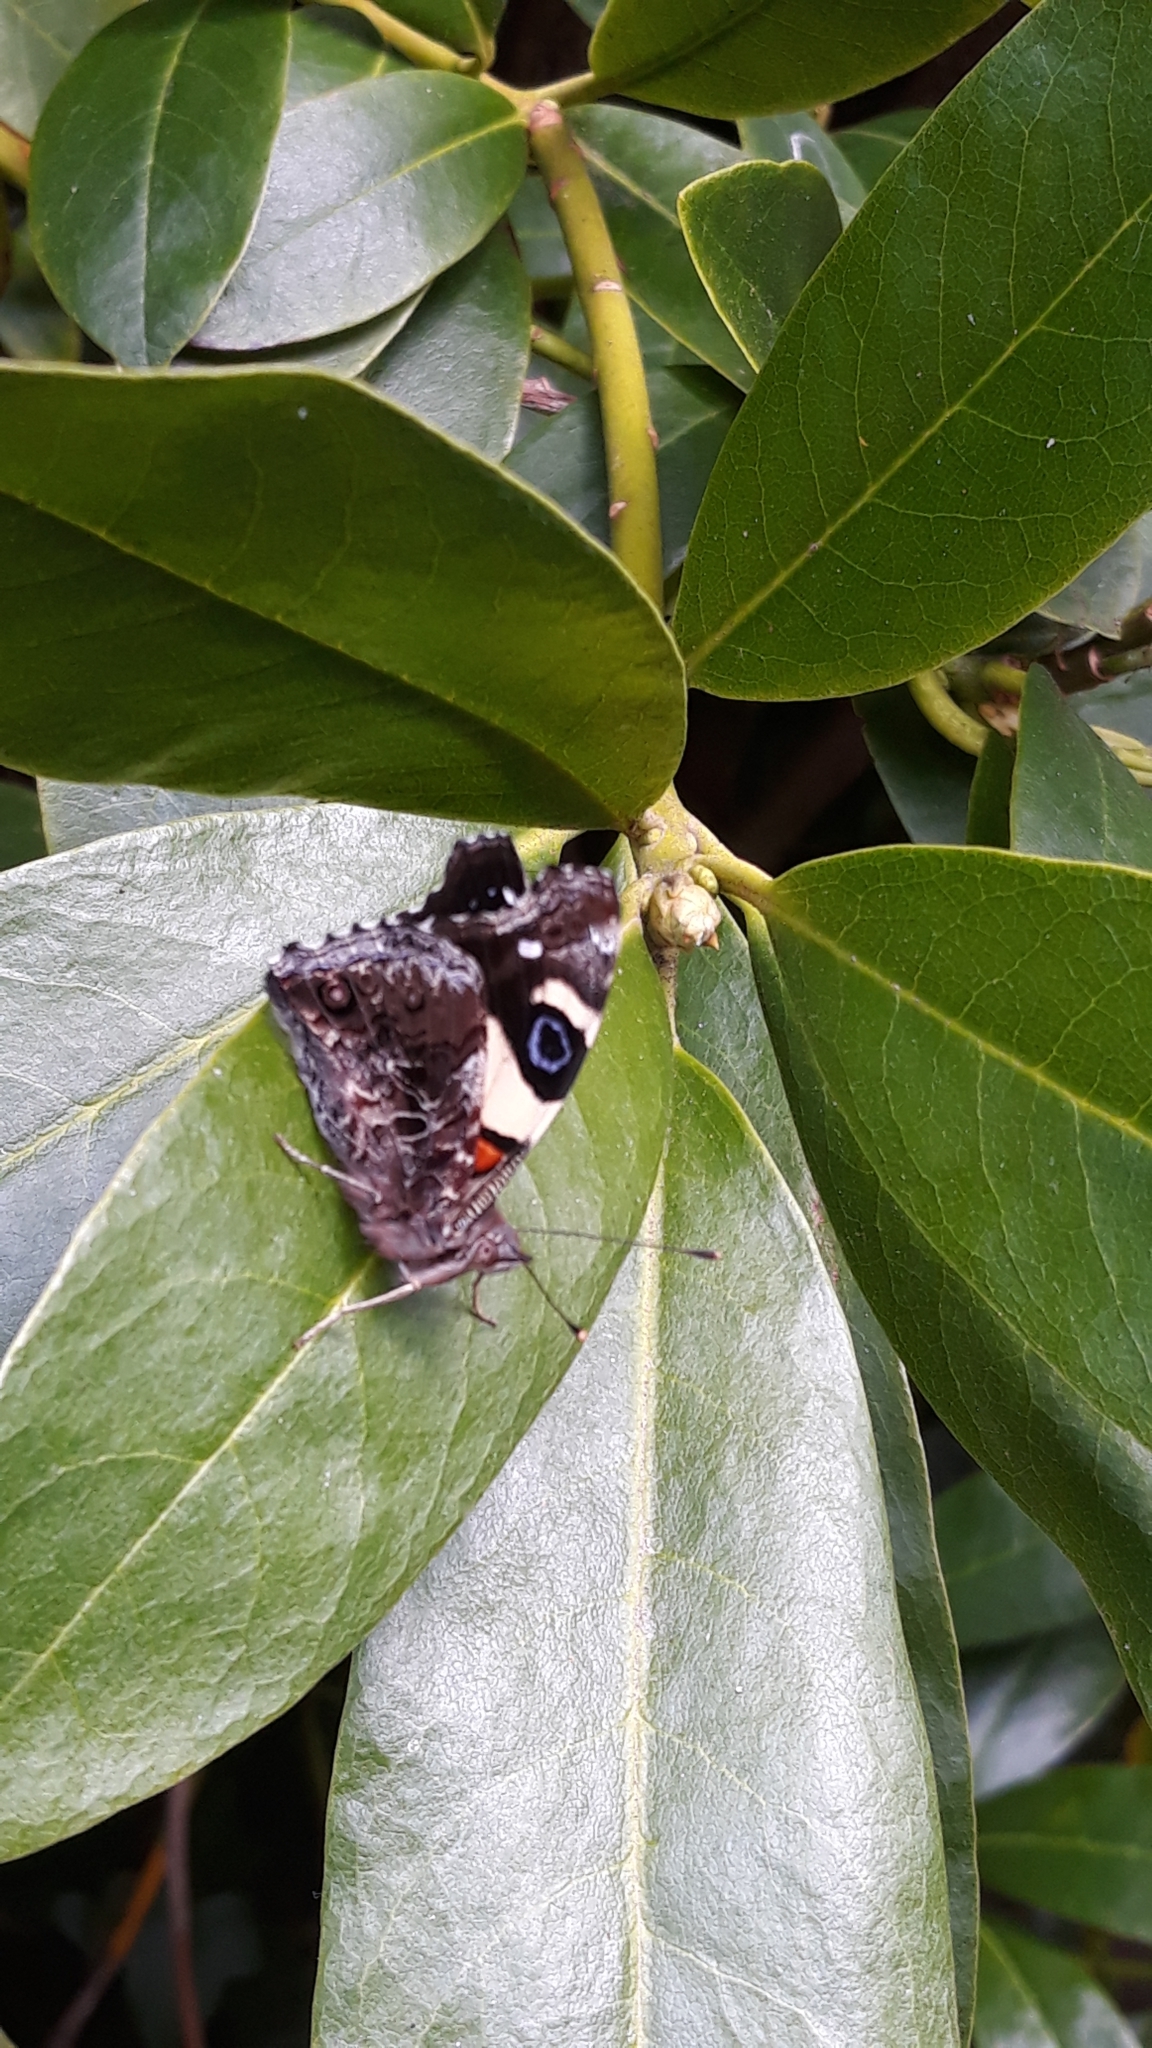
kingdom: Animalia
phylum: Arthropoda
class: Insecta
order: Lepidoptera
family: Nymphalidae
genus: Vanessa
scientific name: Vanessa itea
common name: Yellow admiral
